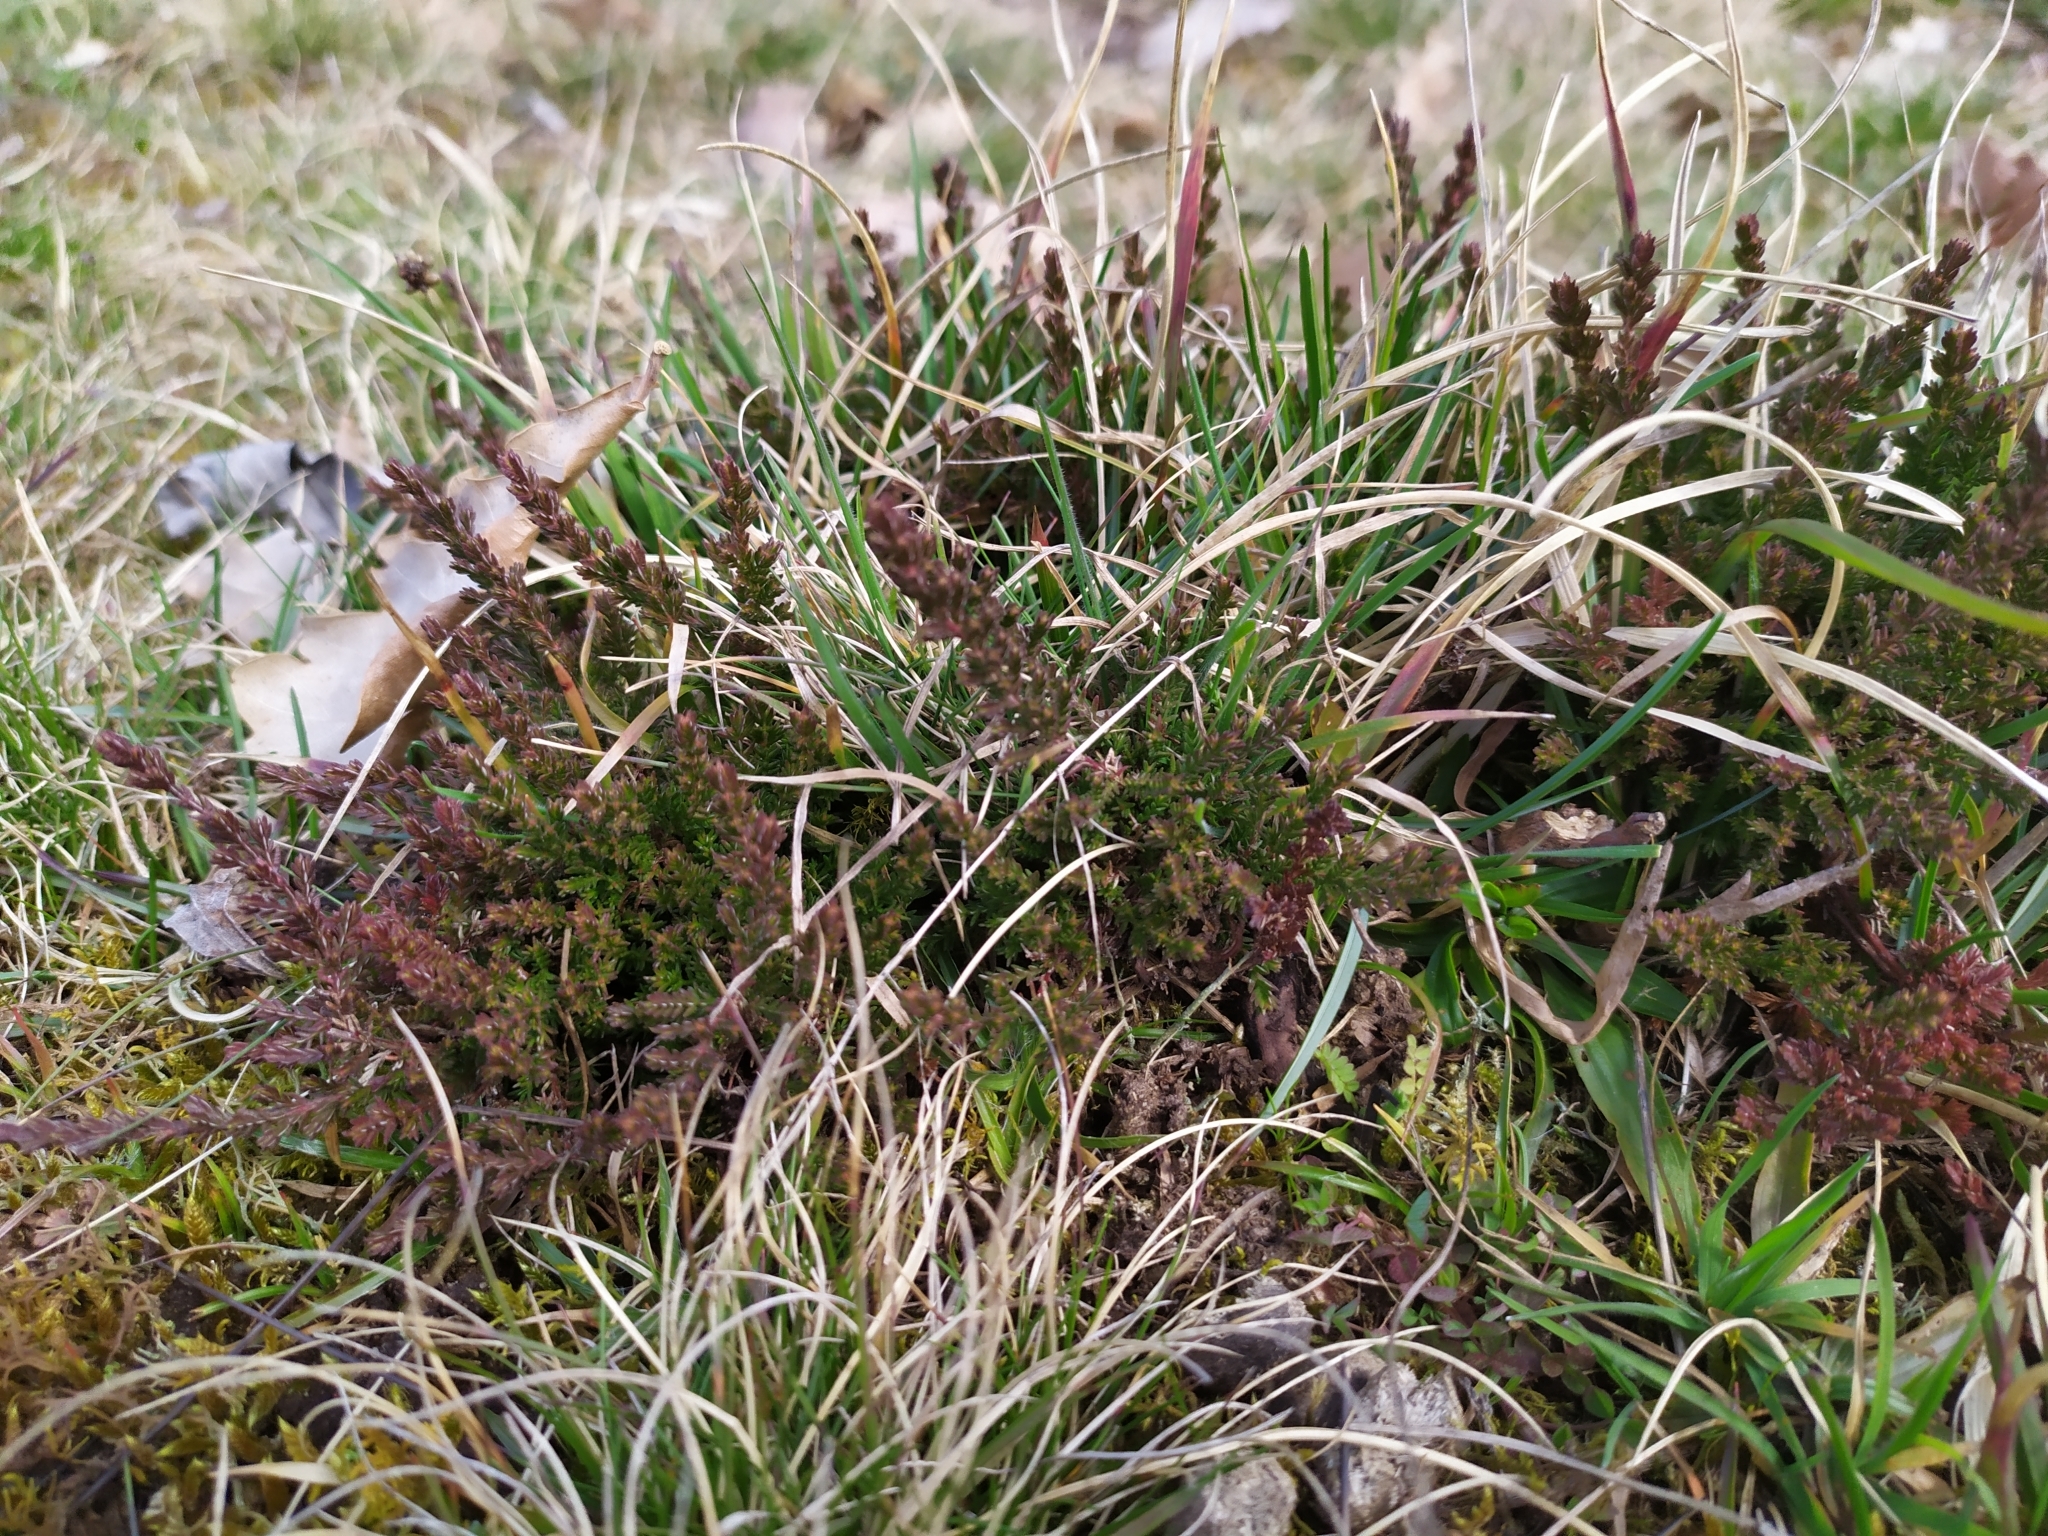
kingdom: Plantae
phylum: Tracheophyta
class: Magnoliopsida
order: Ericales
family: Ericaceae
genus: Calluna
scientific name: Calluna vulgaris
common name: Heather
